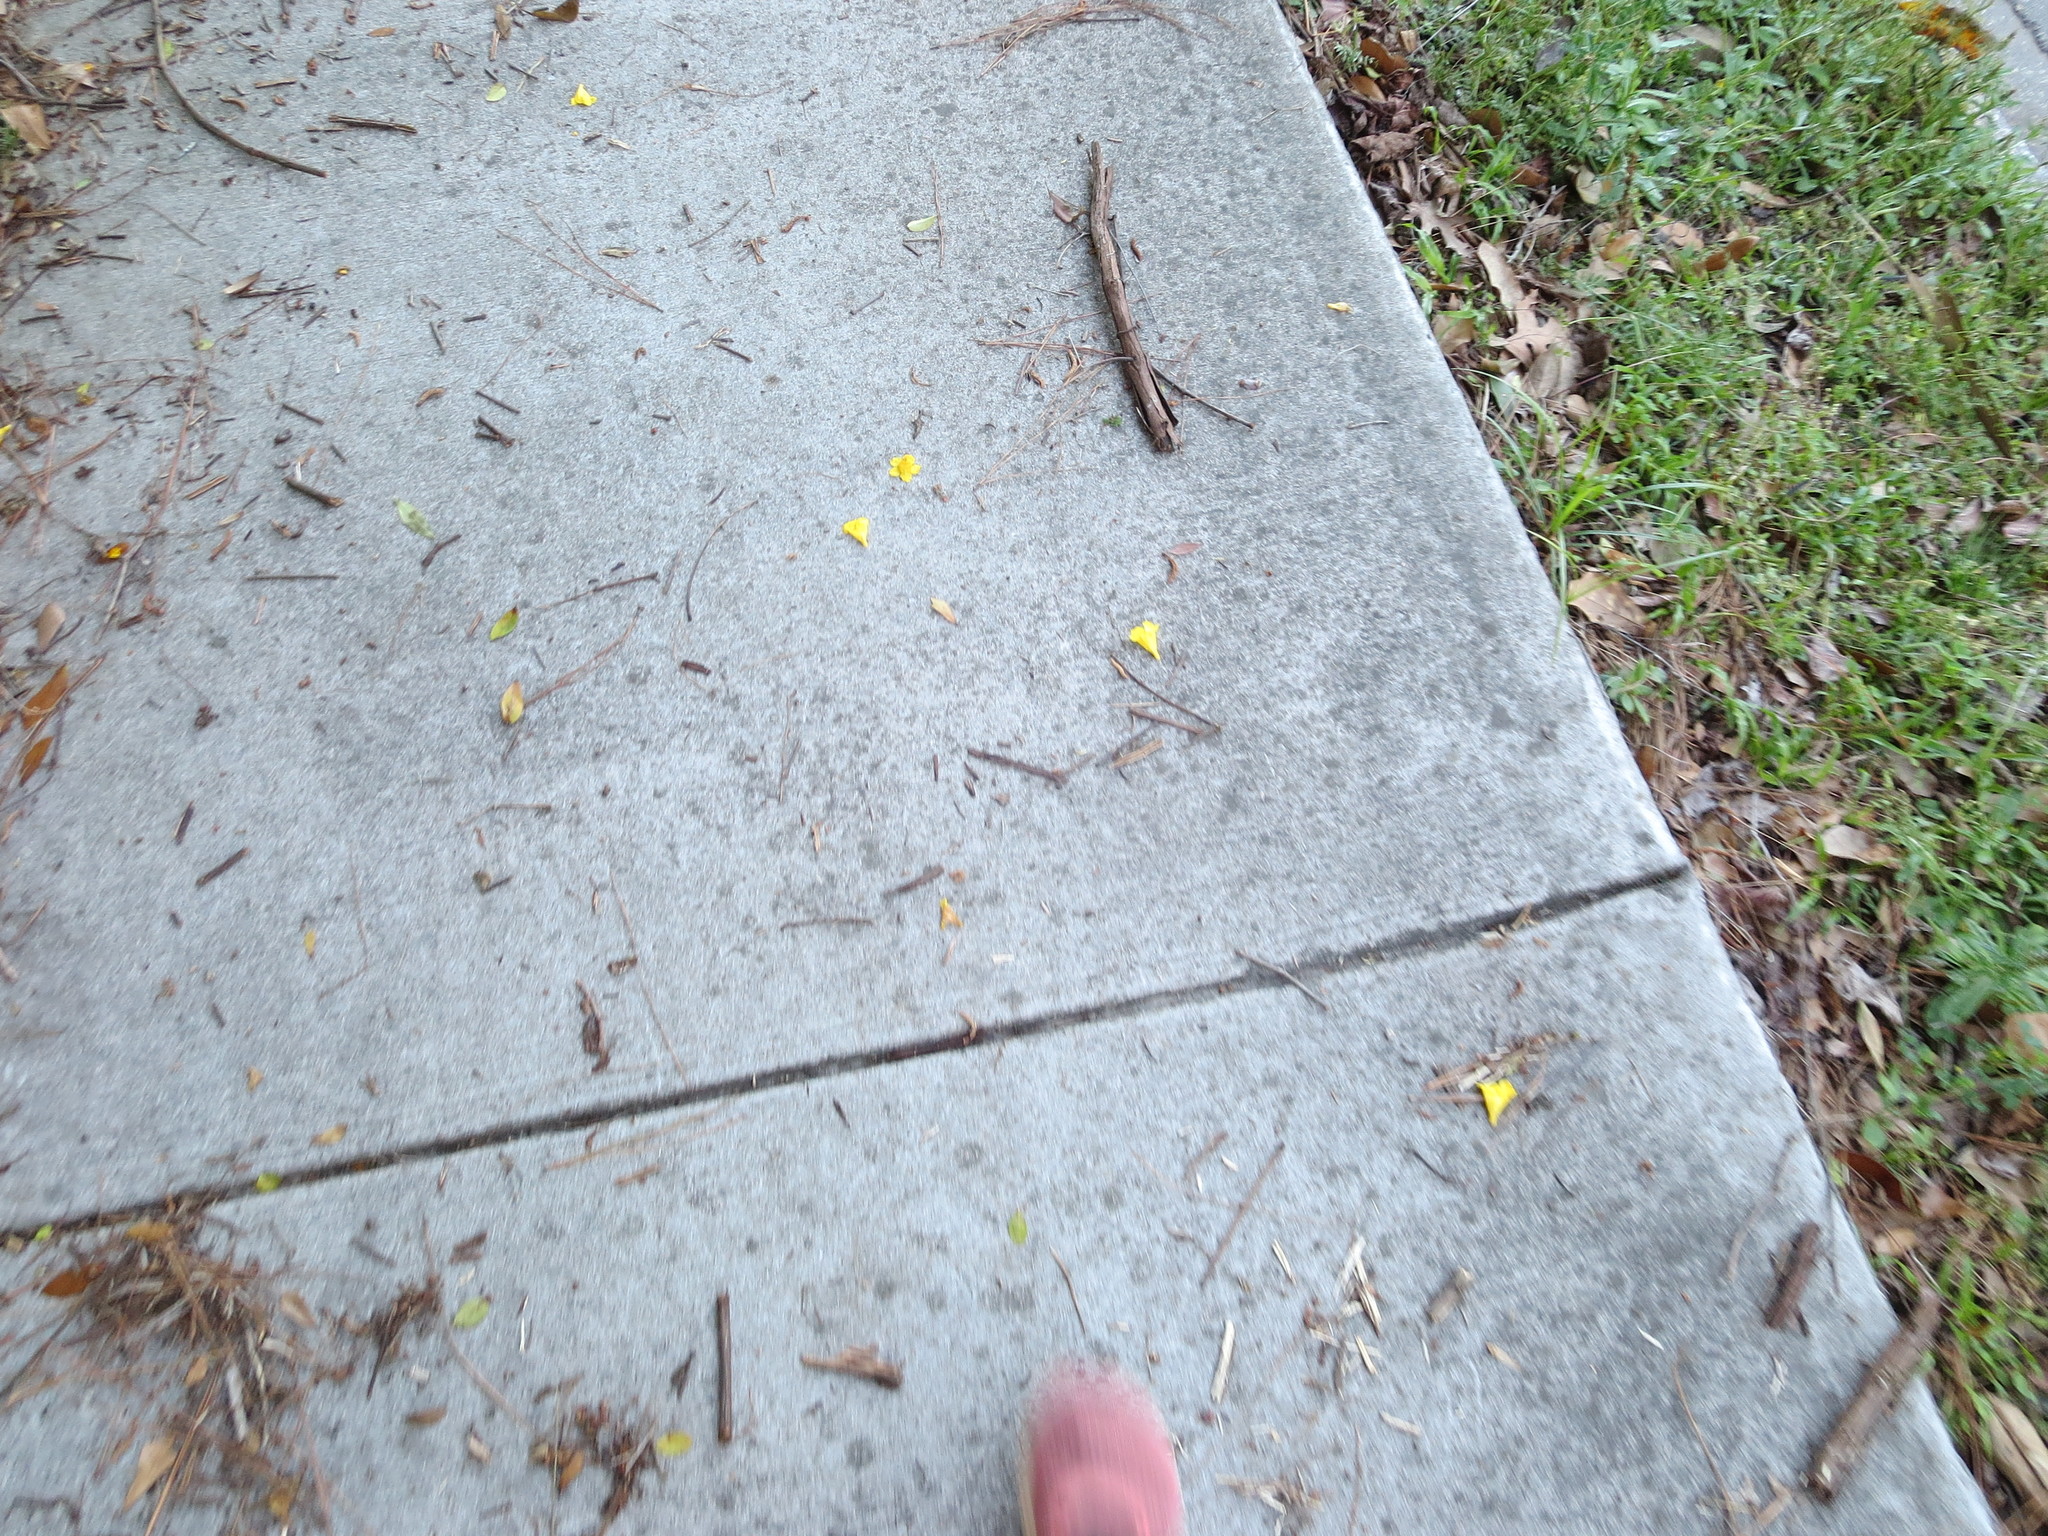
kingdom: Plantae
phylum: Tracheophyta
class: Magnoliopsida
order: Gentianales
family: Gelsemiaceae
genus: Gelsemium
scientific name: Gelsemium sempervirens
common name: Carolina-jasmine
